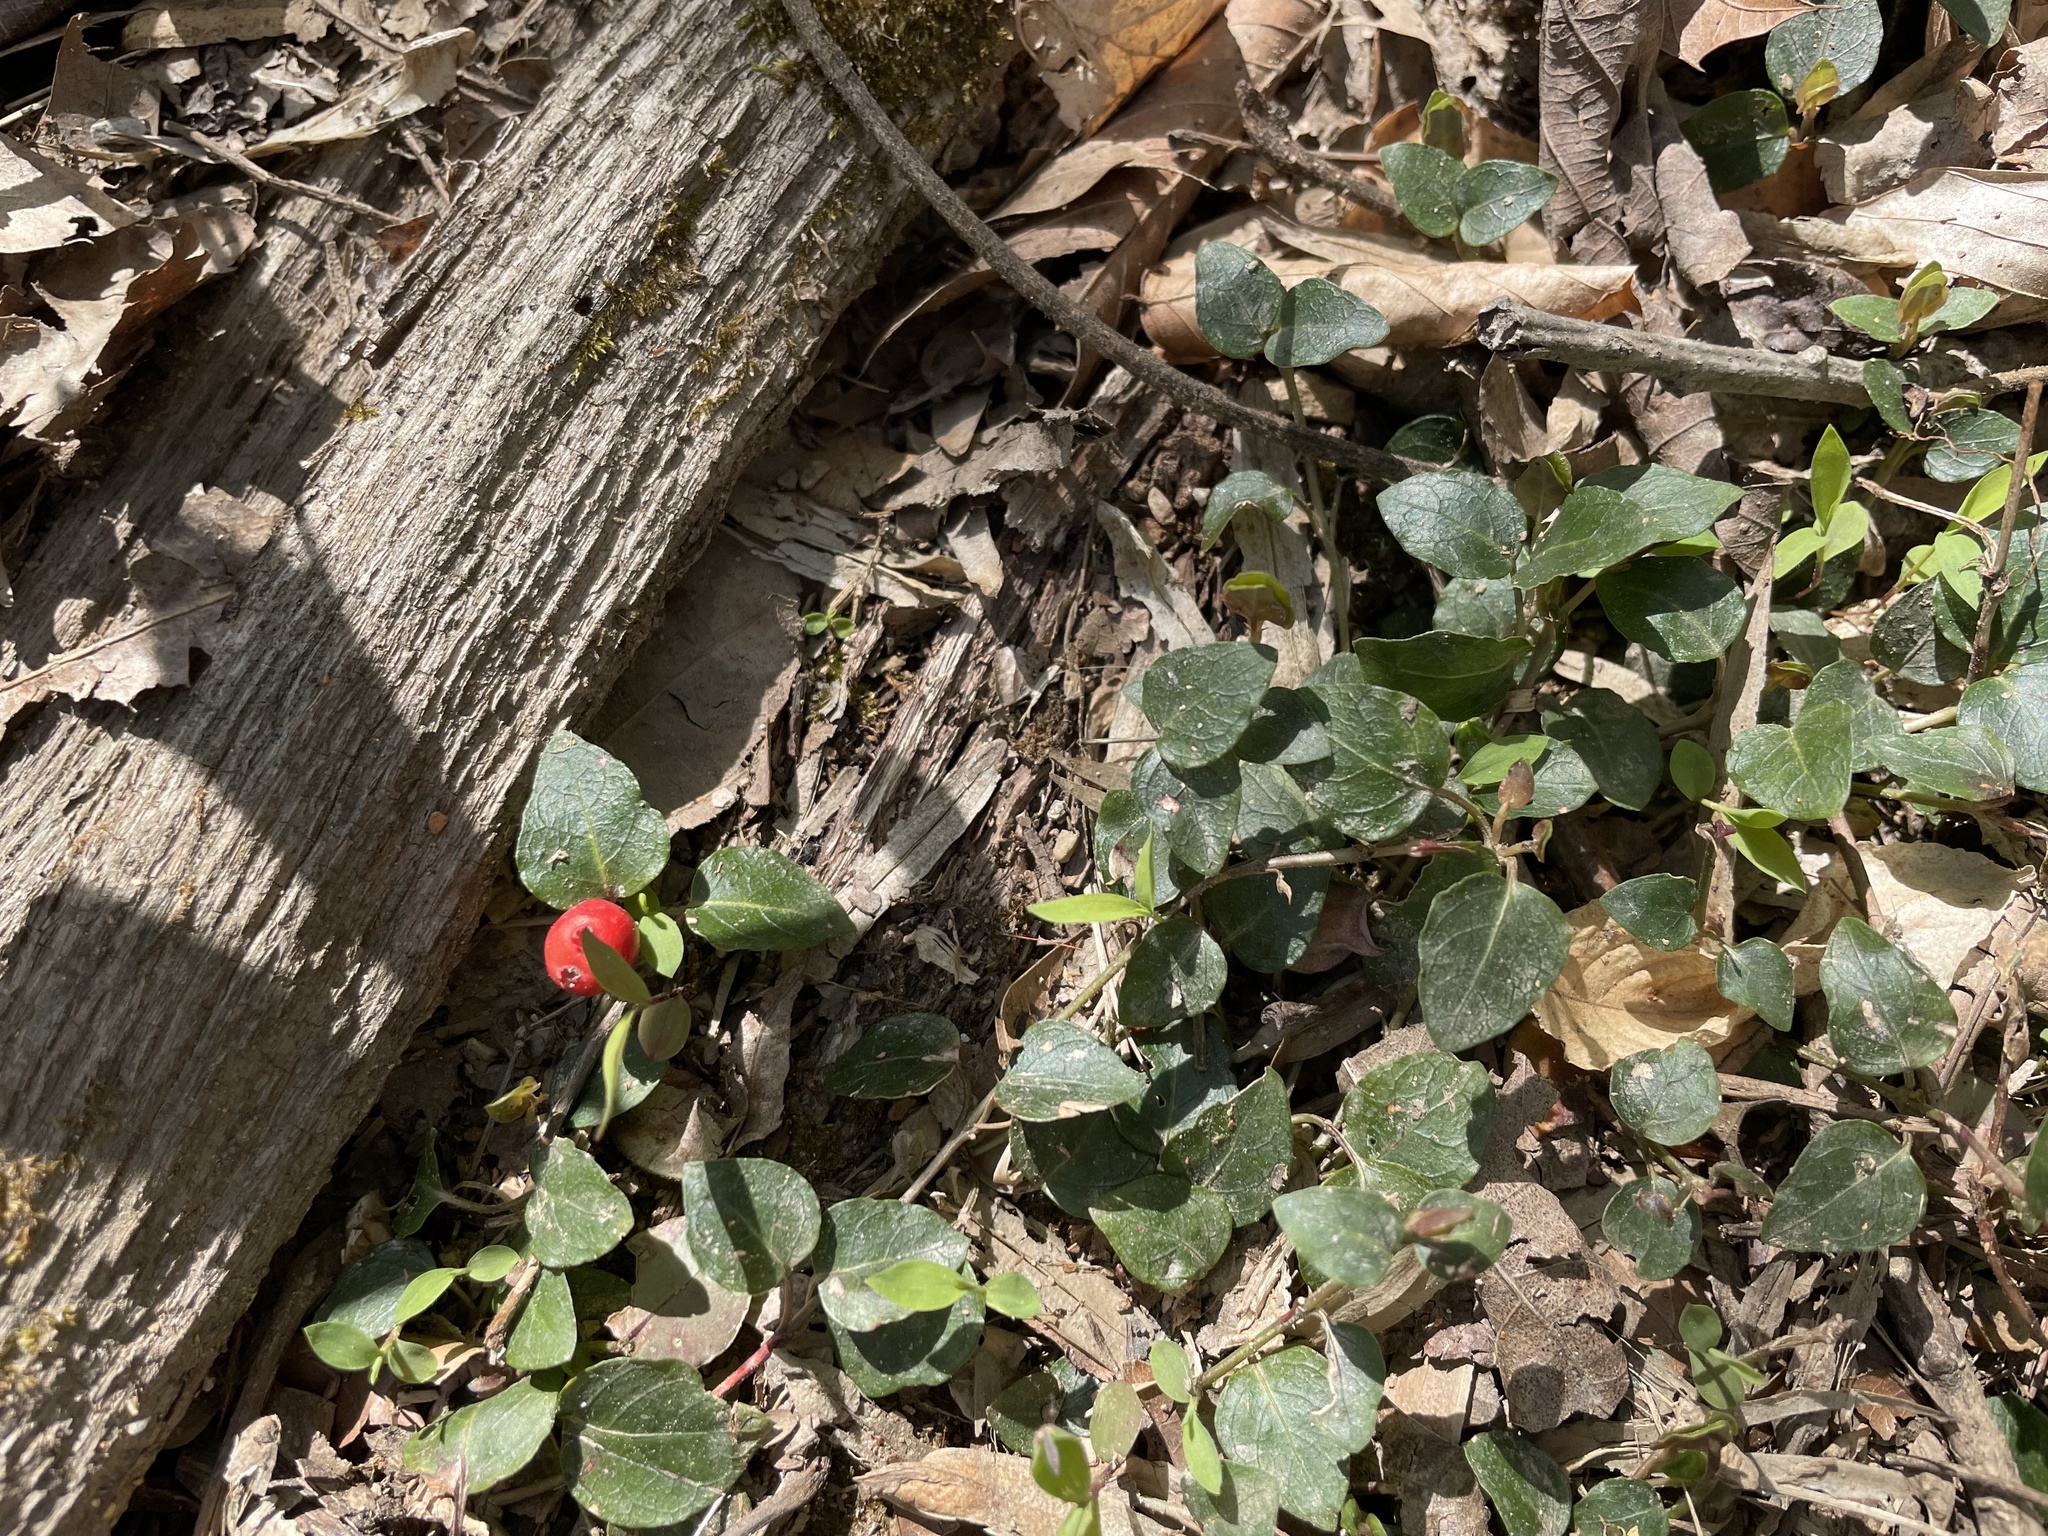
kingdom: Plantae
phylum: Tracheophyta
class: Magnoliopsida
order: Gentianales
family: Rubiaceae
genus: Mitchella
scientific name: Mitchella repens
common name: Partridge-berry
